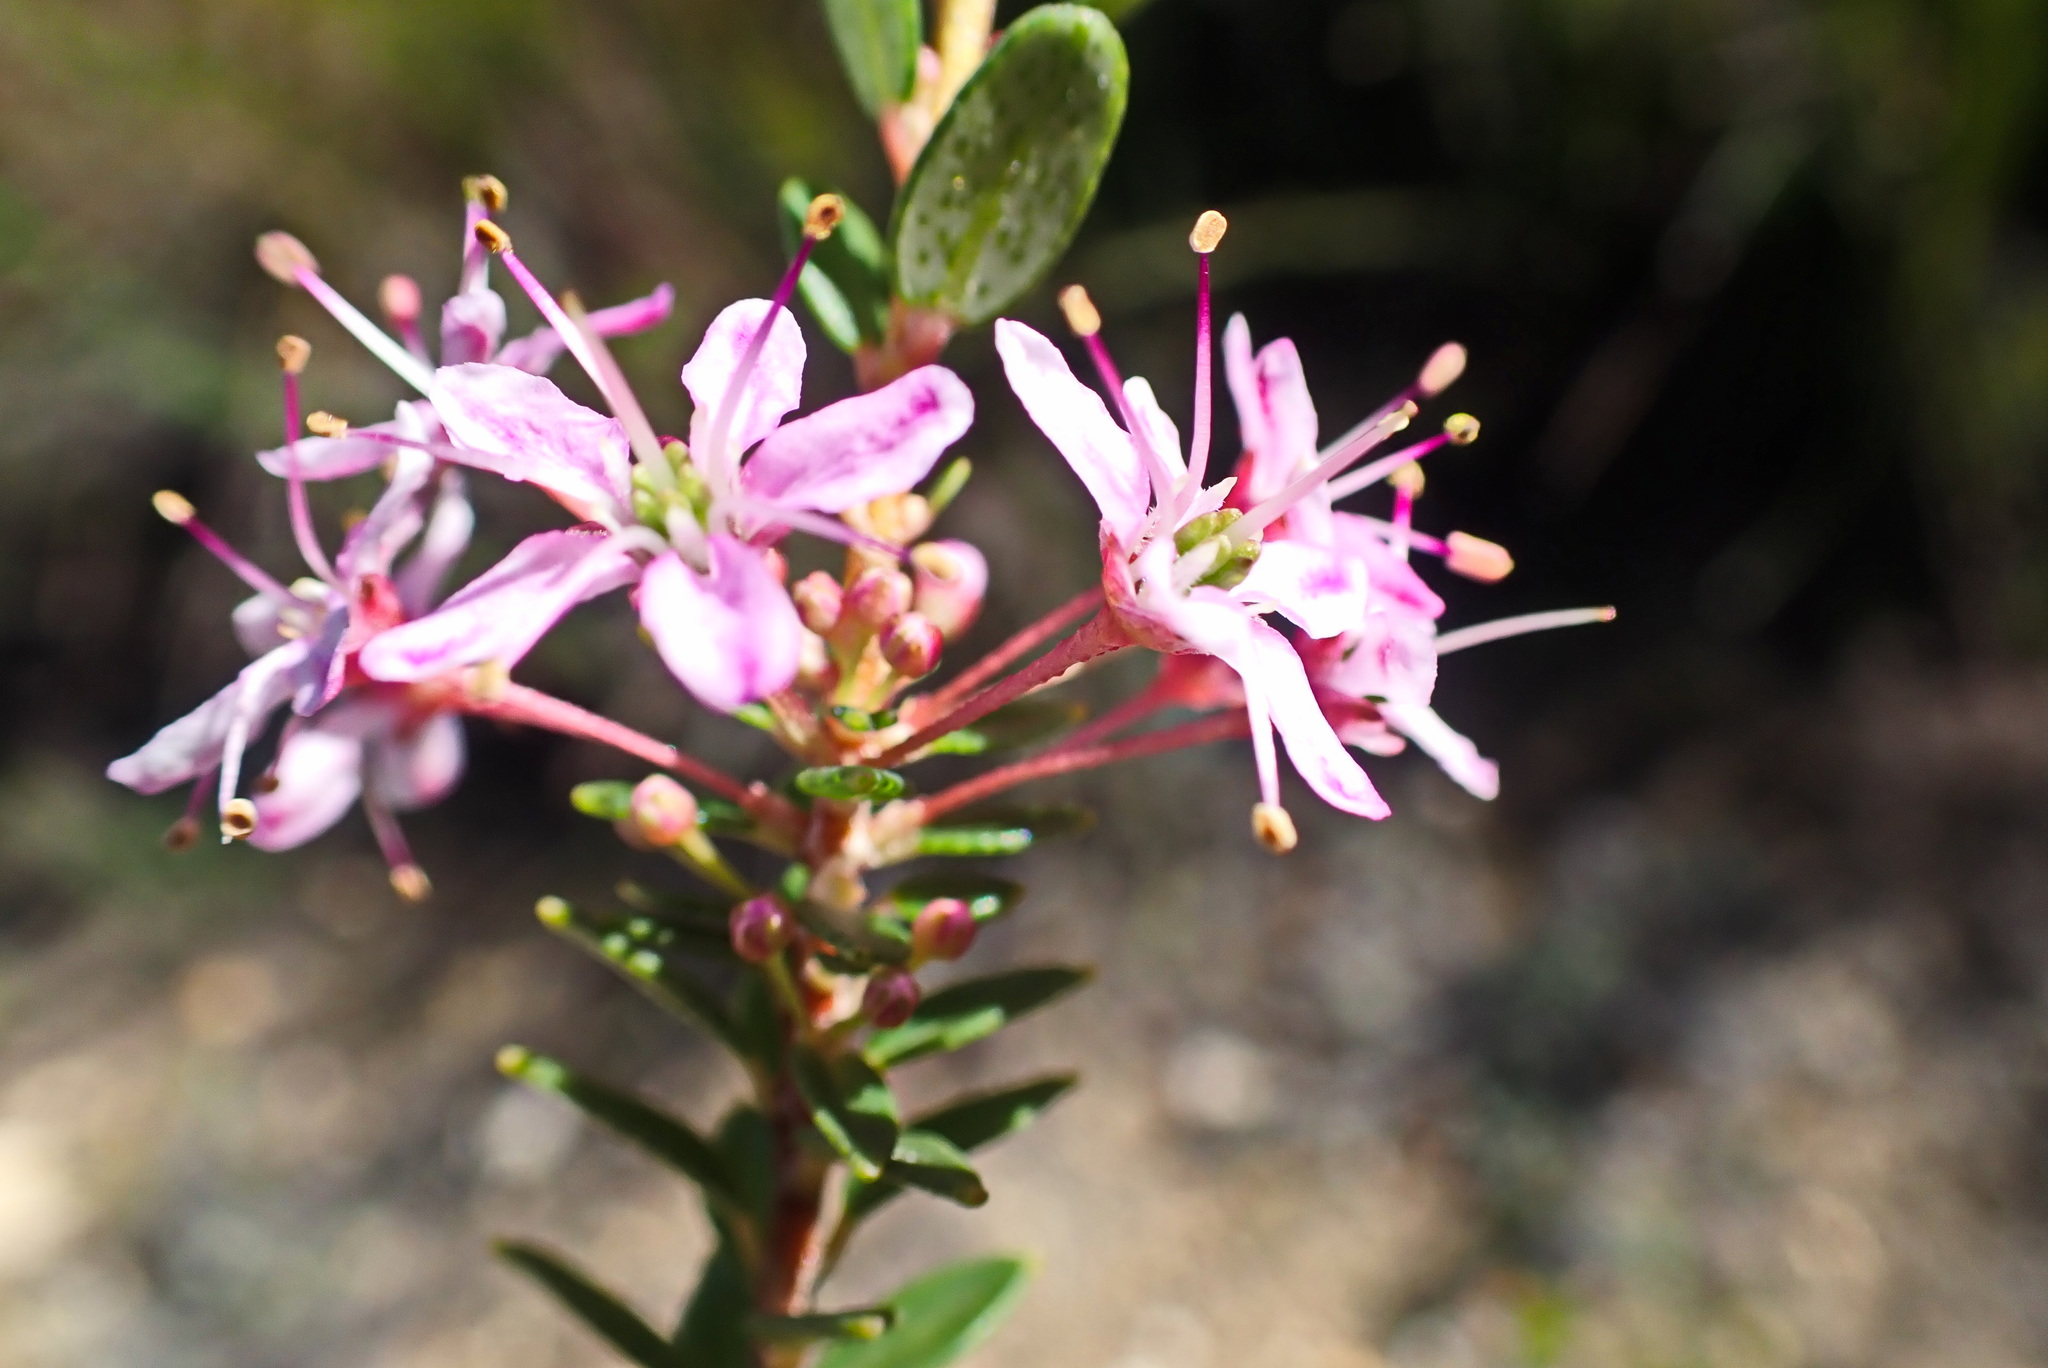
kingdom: Plantae
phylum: Tracheophyta
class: Magnoliopsida
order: Sapindales
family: Rutaceae
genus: Agathosma
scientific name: Agathosma ovata
